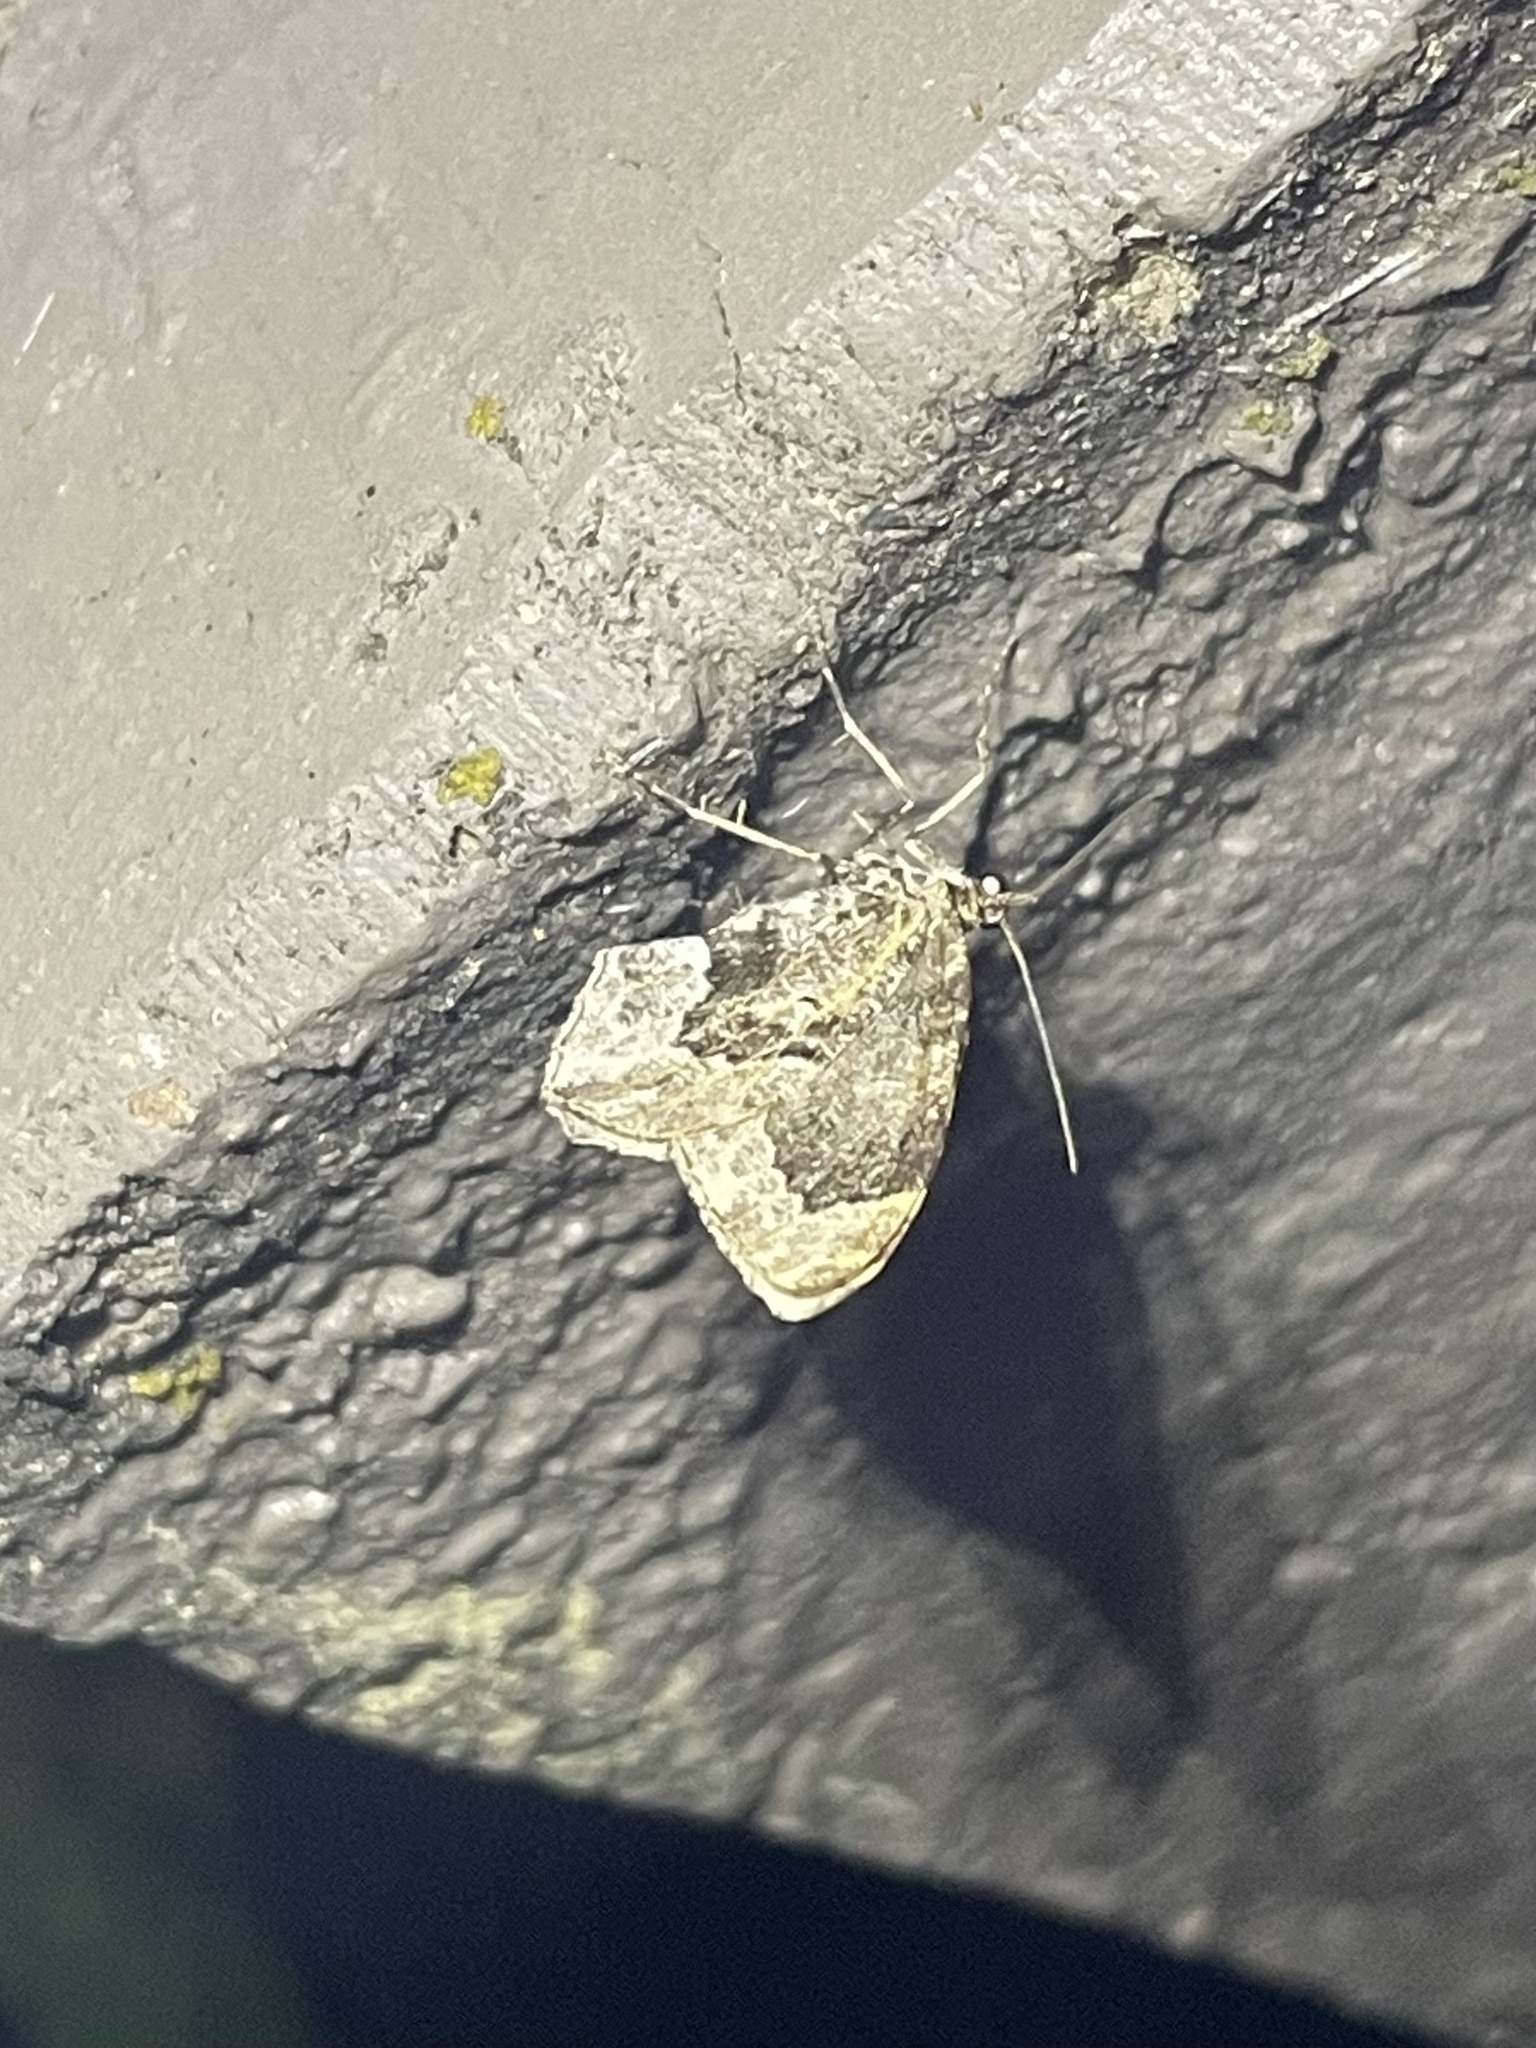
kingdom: Animalia
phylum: Arthropoda
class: Insecta
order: Lepidoptera
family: Geometridae
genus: Ceratodalia
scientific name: Ceratodalia gueneata
